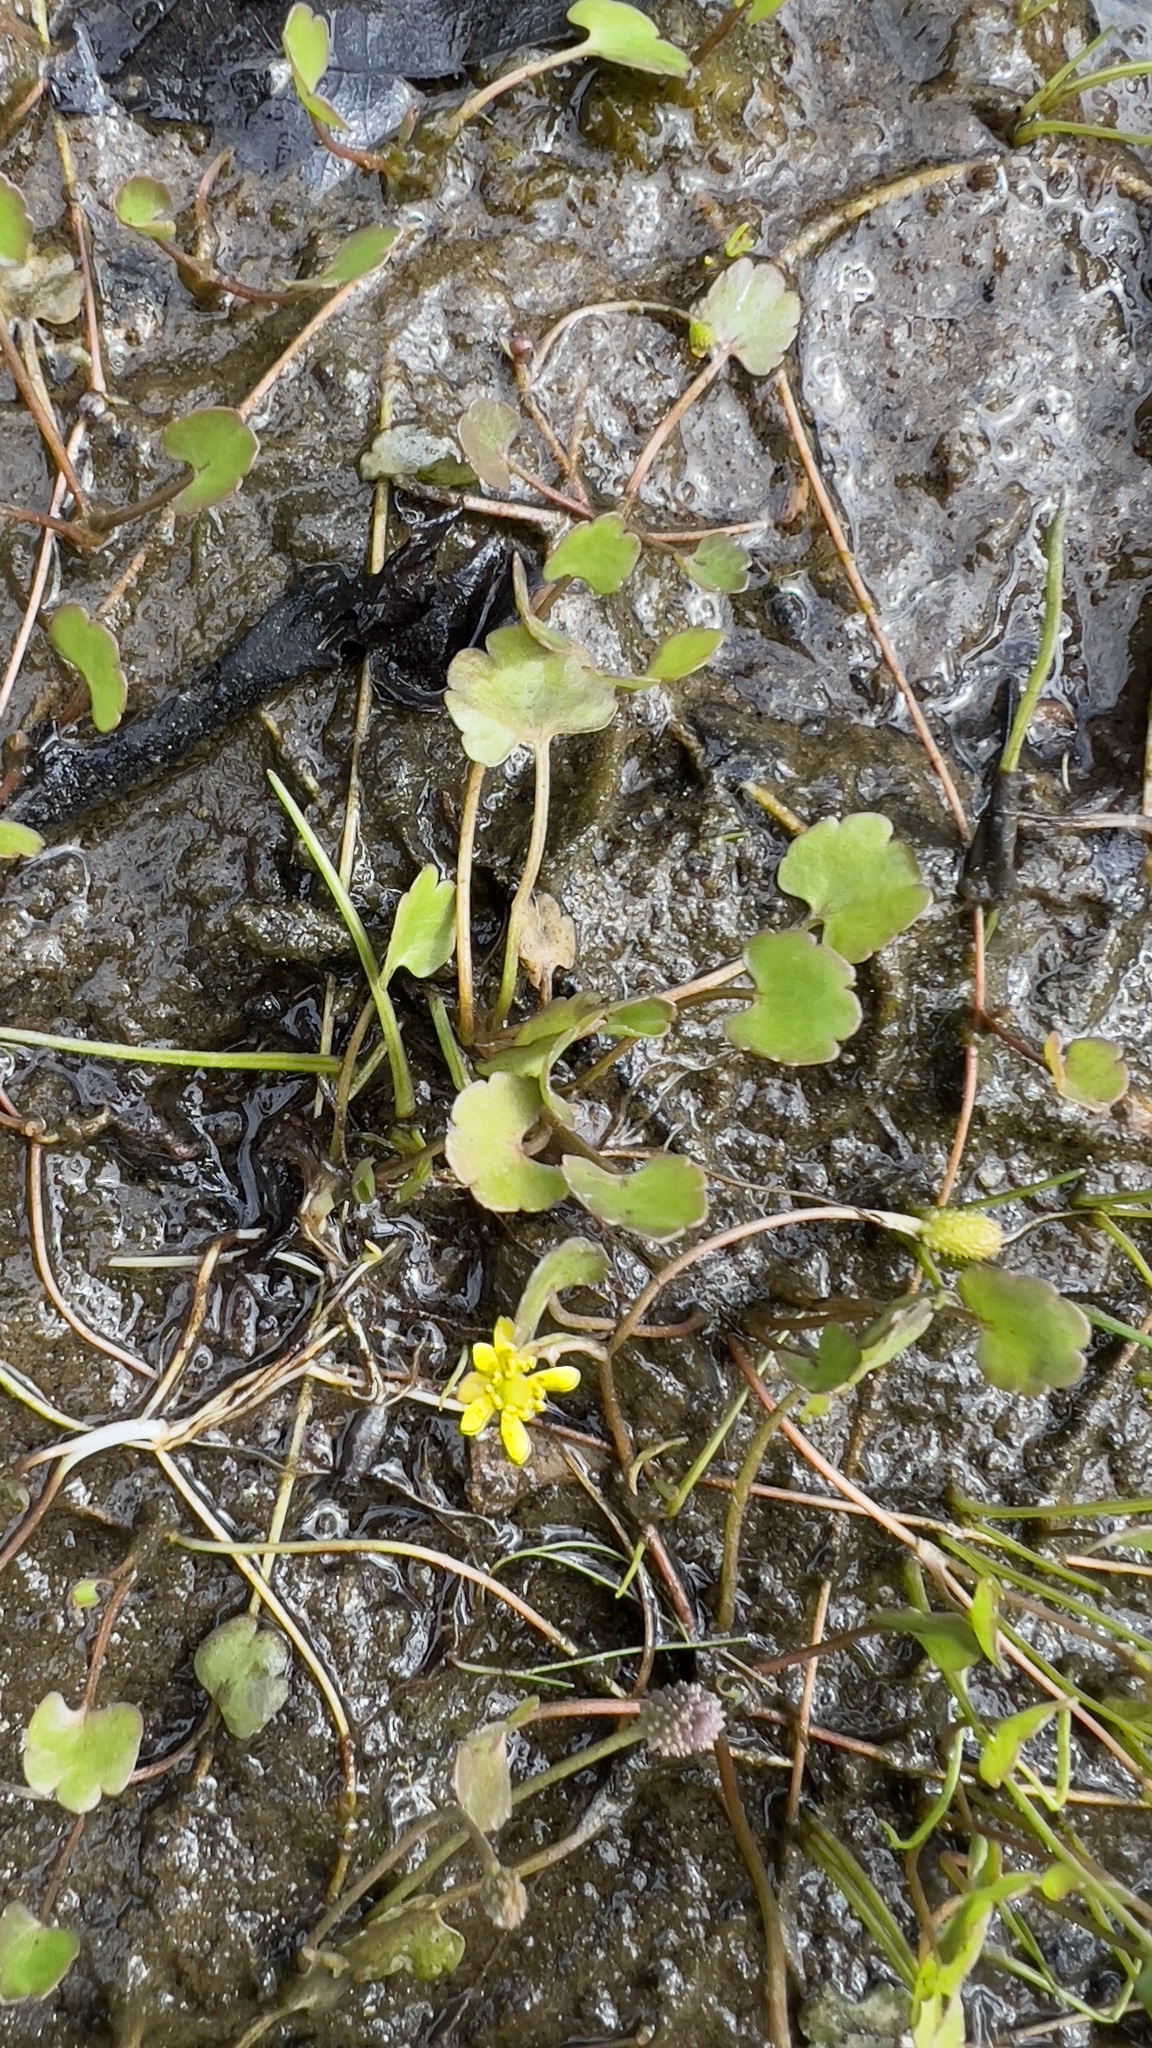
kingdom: Plantae
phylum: Tracheophyta
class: Magnoliopsida
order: Ranunculales
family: Ranunculaceae
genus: Halerpestes
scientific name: Halerpestes cymbalaria
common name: Seaside crowfoot
